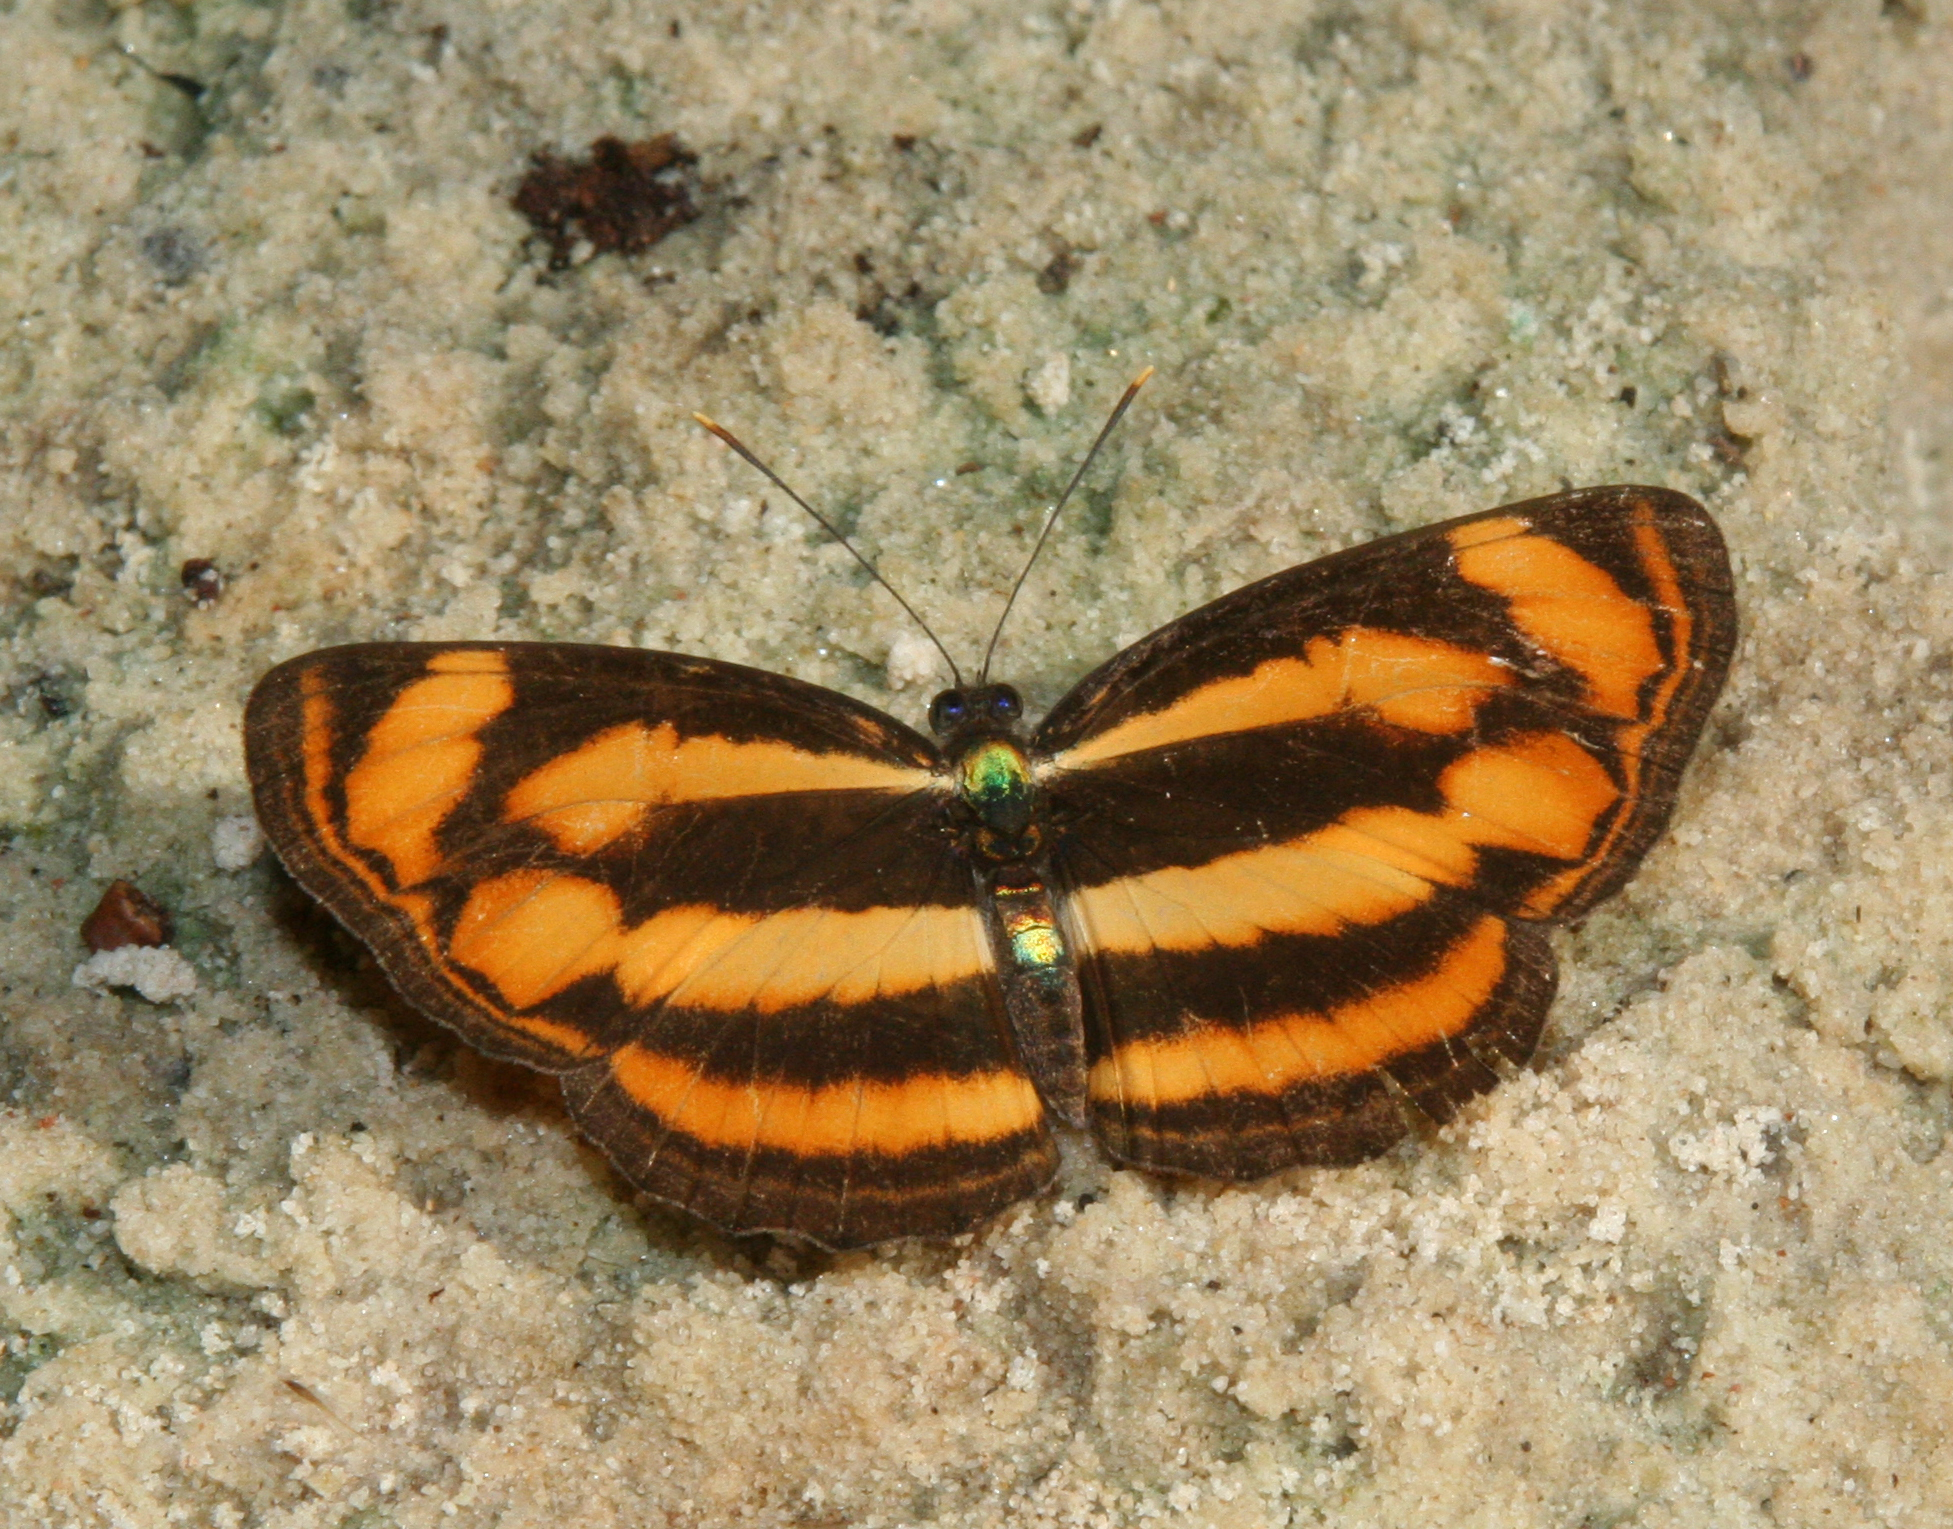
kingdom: Animalia
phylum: Arthropoda
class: Insecta
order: Lepidoptera
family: Nymphalidae
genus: Lasippa
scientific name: Lasippa
